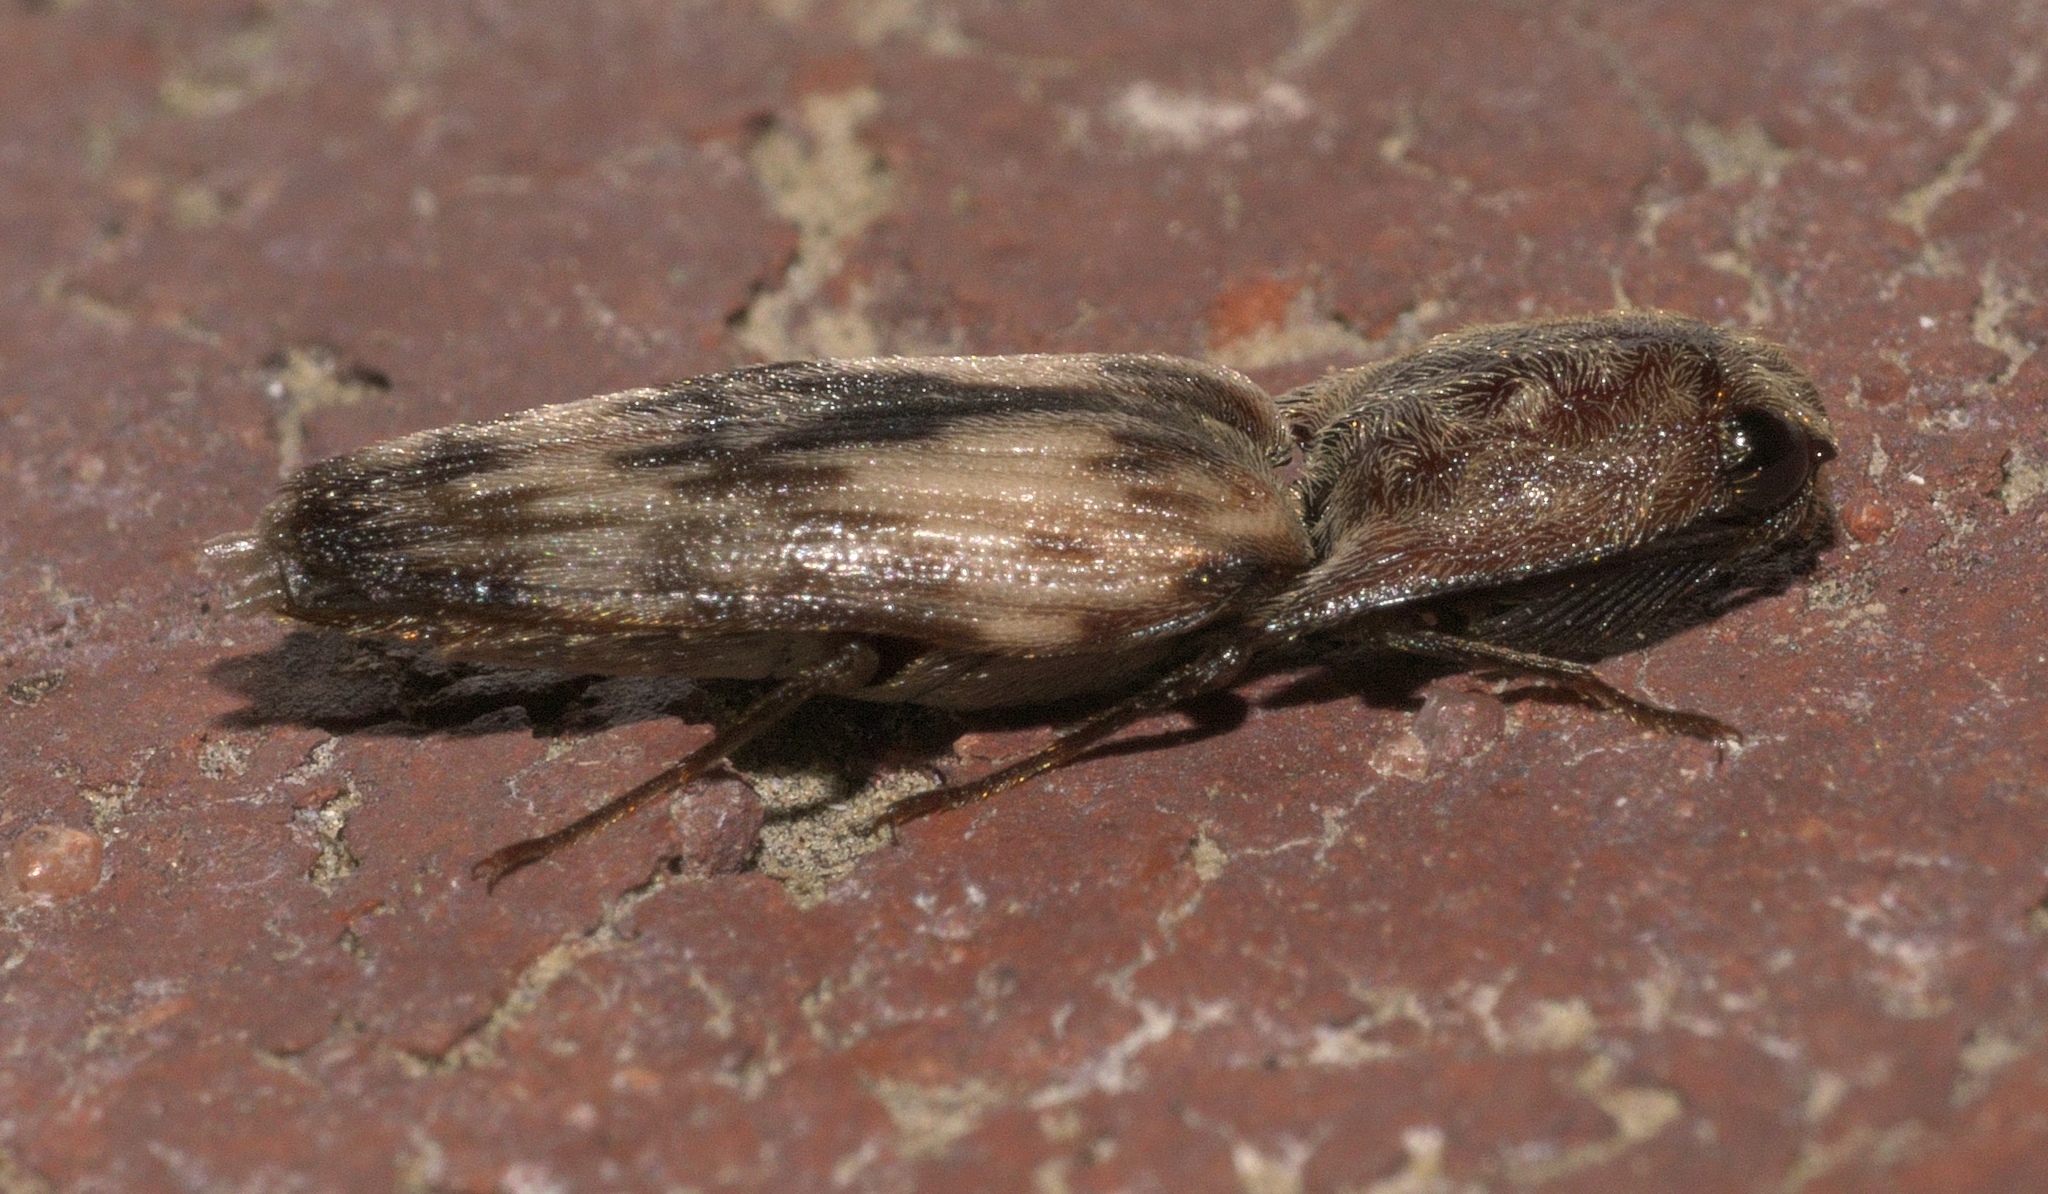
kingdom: Animalia
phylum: Arthropoda
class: Insecta
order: Coleoptera
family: Elateridae
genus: Pherhimius
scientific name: Pherhimius fascicularis
